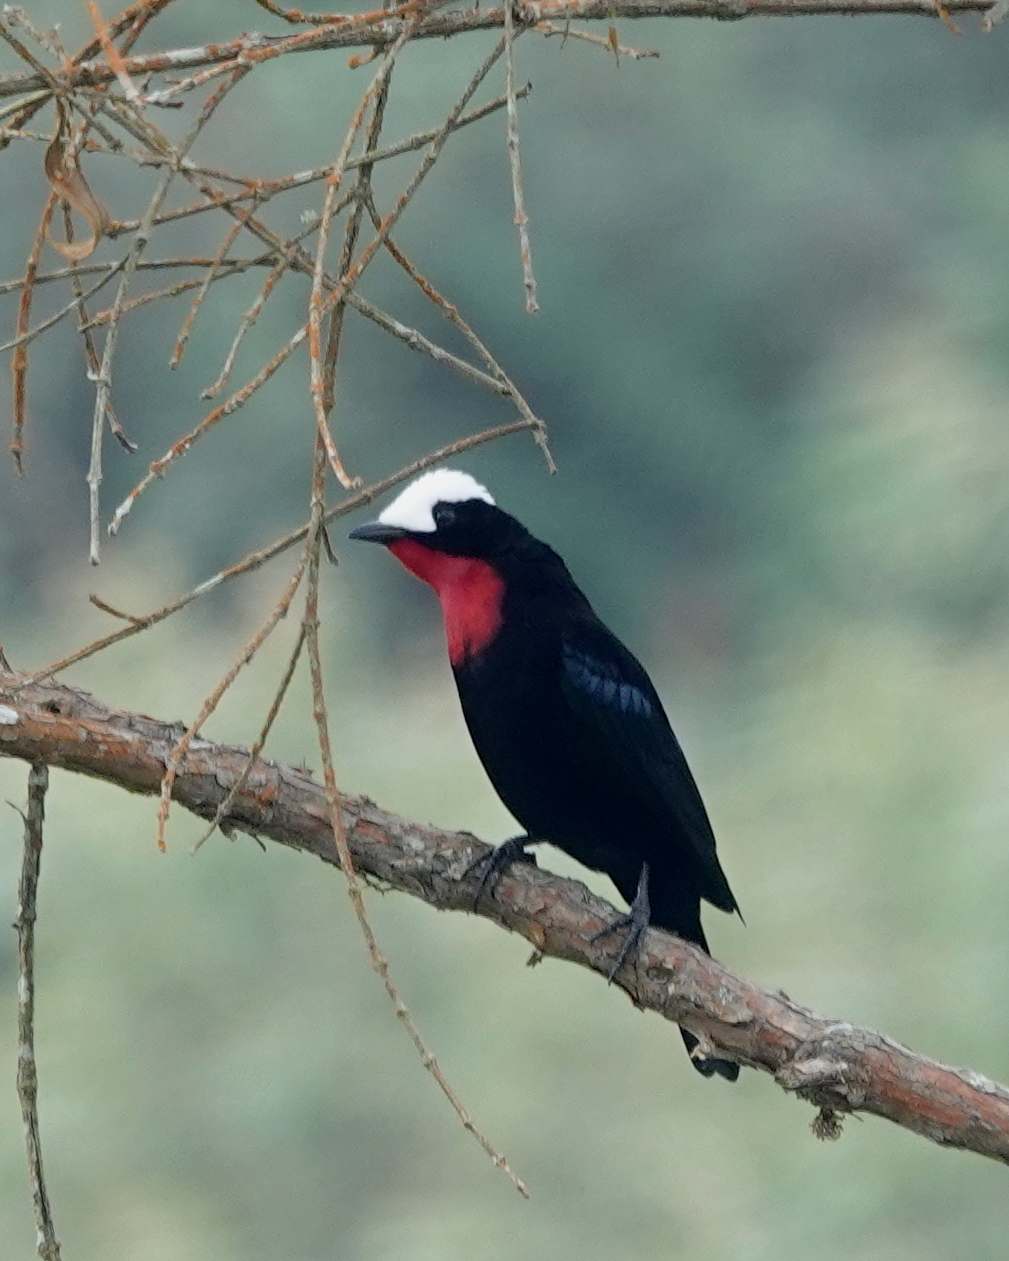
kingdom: Animalia
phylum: Chordata
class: Aves
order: Passeriformes
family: Thraupidae
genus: Sericossypha
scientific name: Sericossypha albocristata
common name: White-capped tanager
